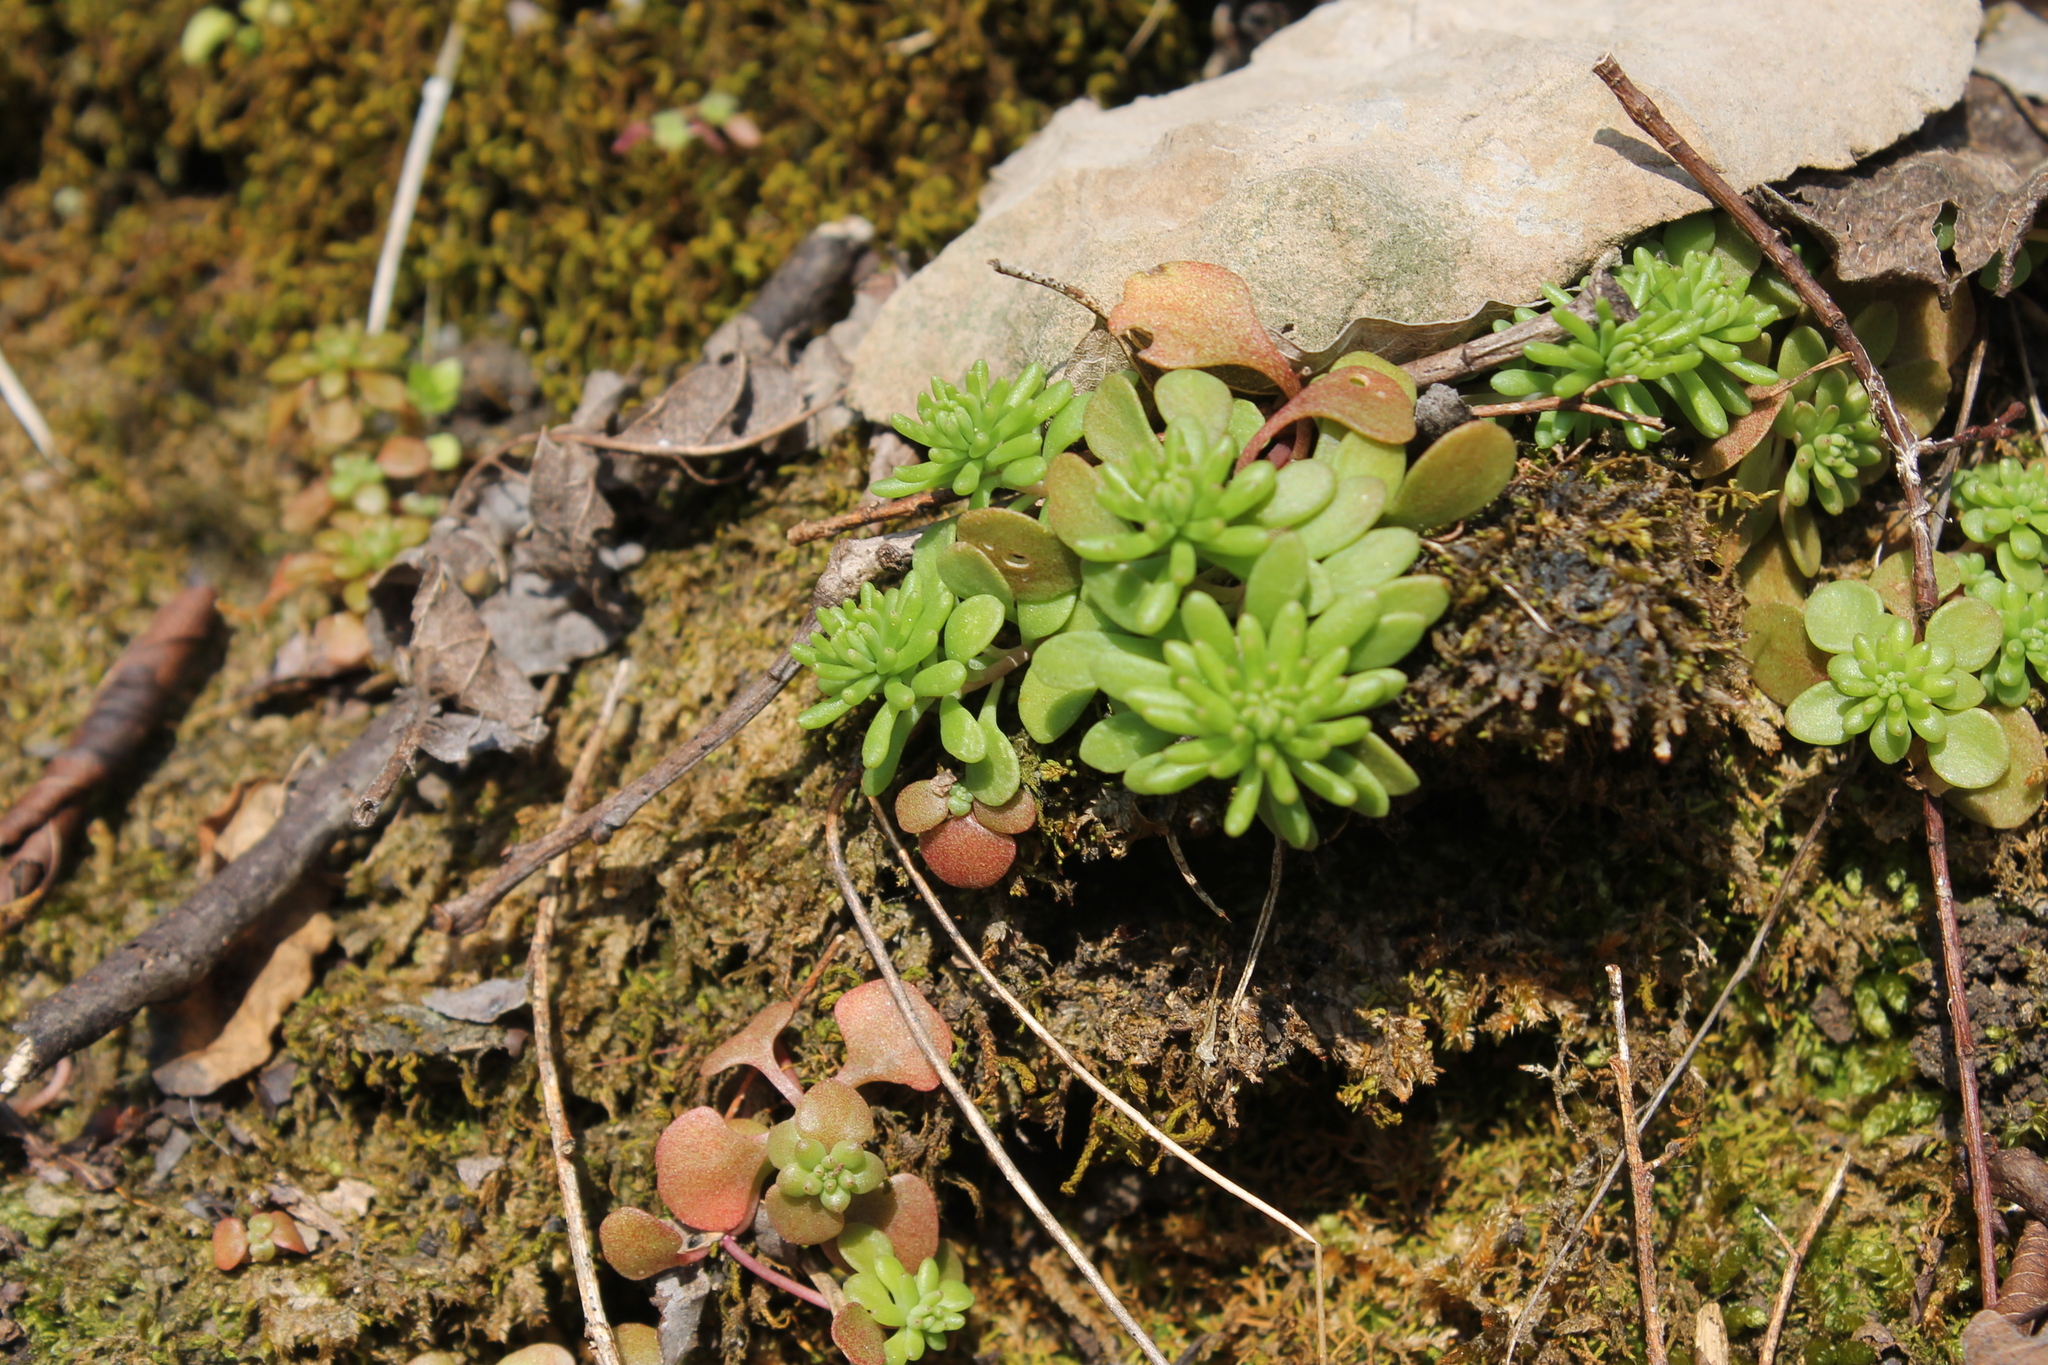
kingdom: Plantae
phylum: Tracheophyta
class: Magnoliopsida
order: Saxifragales
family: Crassulaceae
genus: Sedum
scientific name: Sedum pulchellum
